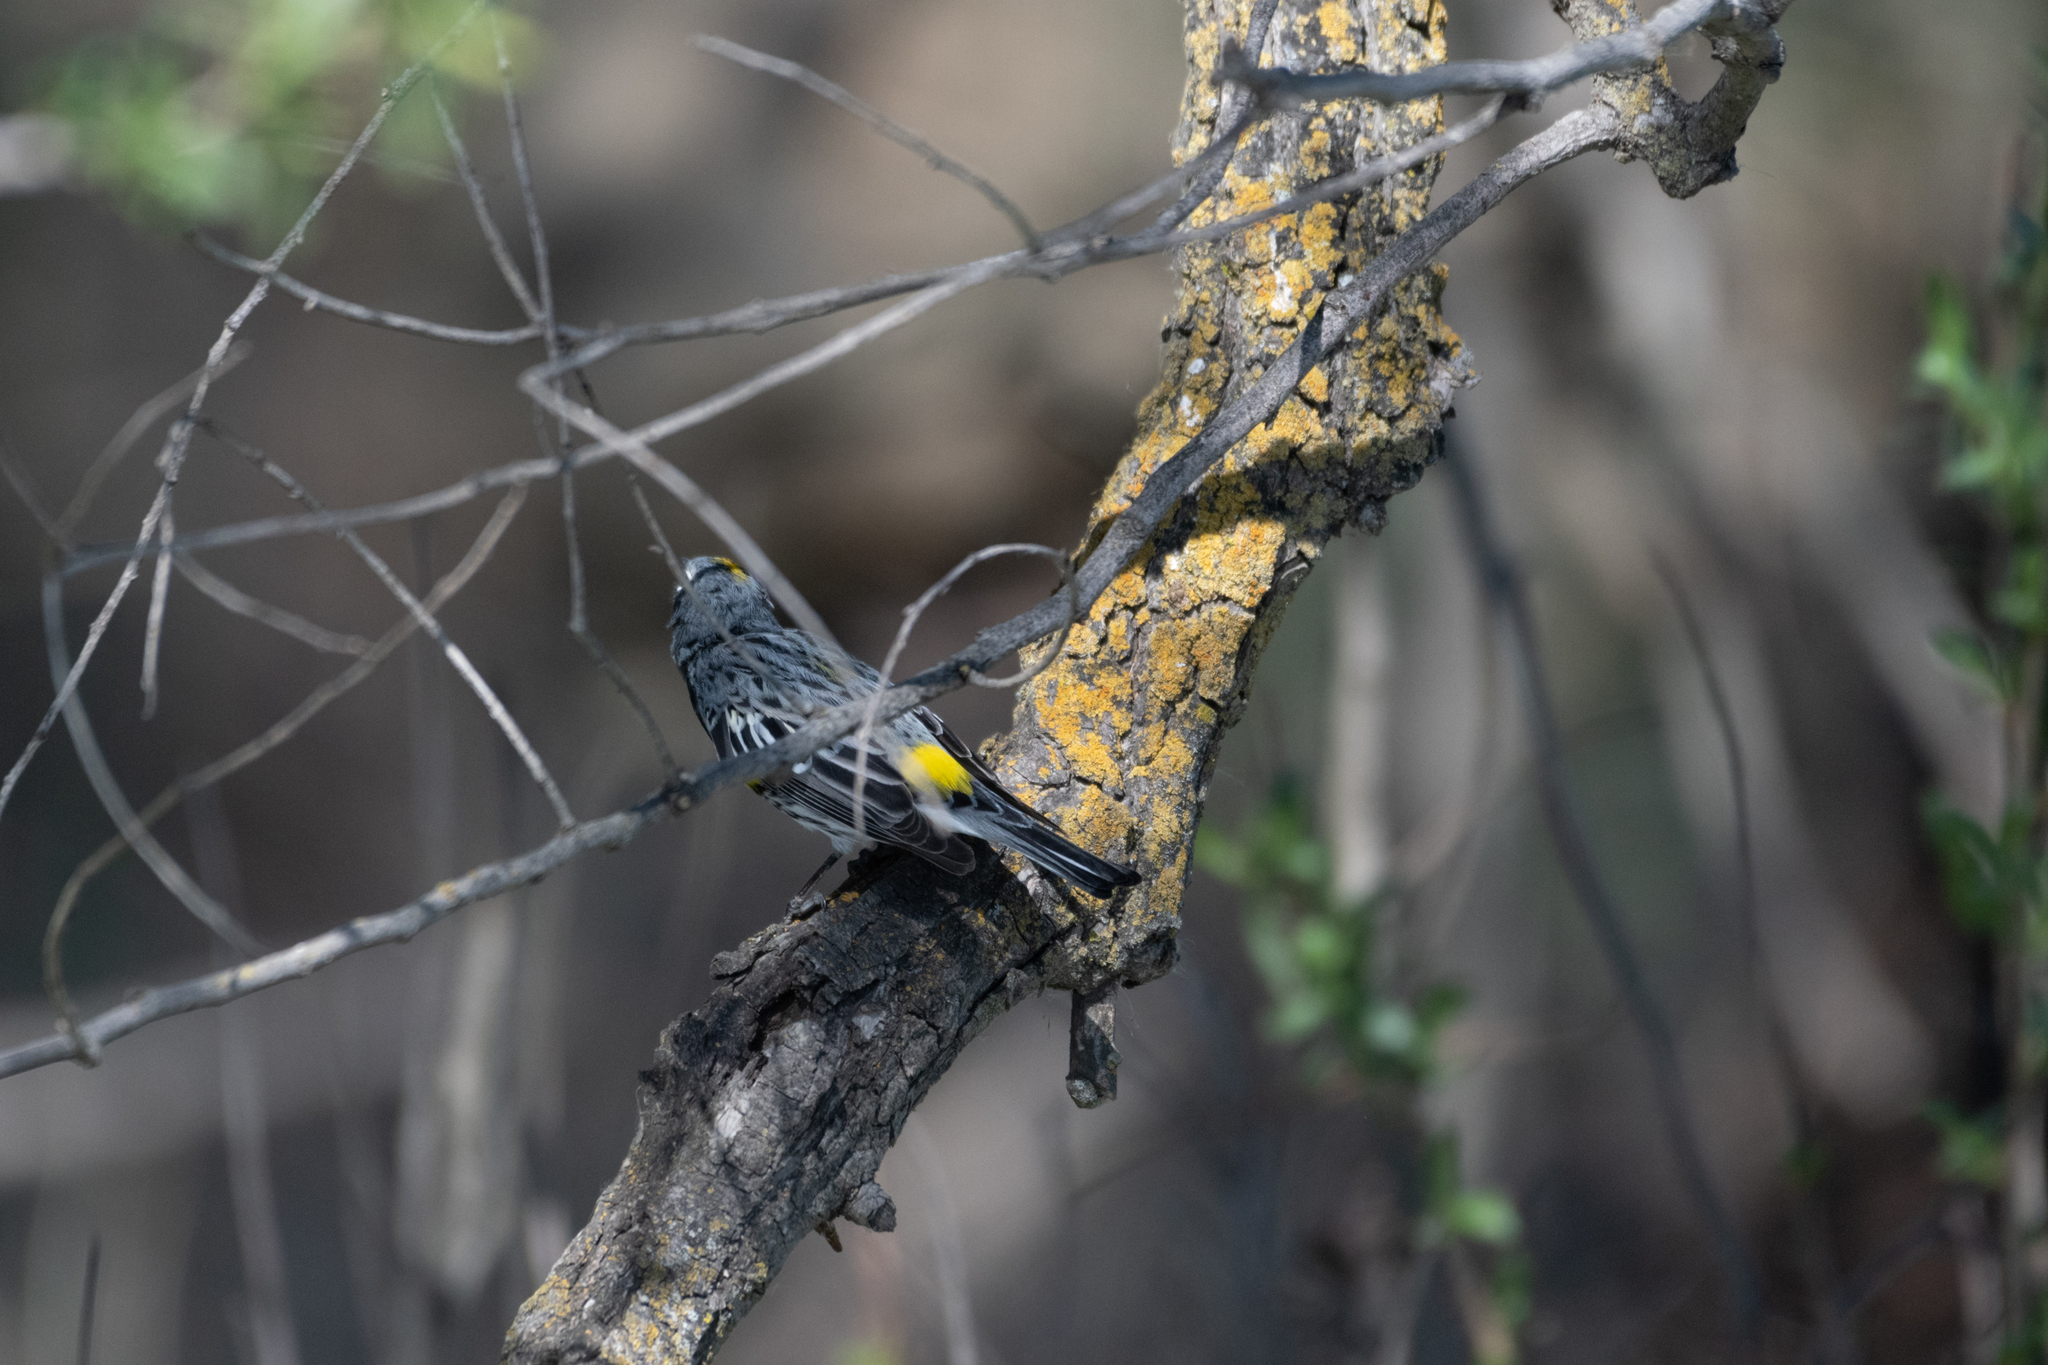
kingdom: Animalia
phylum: Chordata
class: Aves
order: Passeriformes
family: Parulidae
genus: Setophaga
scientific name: Setophaga coronata
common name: Myrtle warbler
